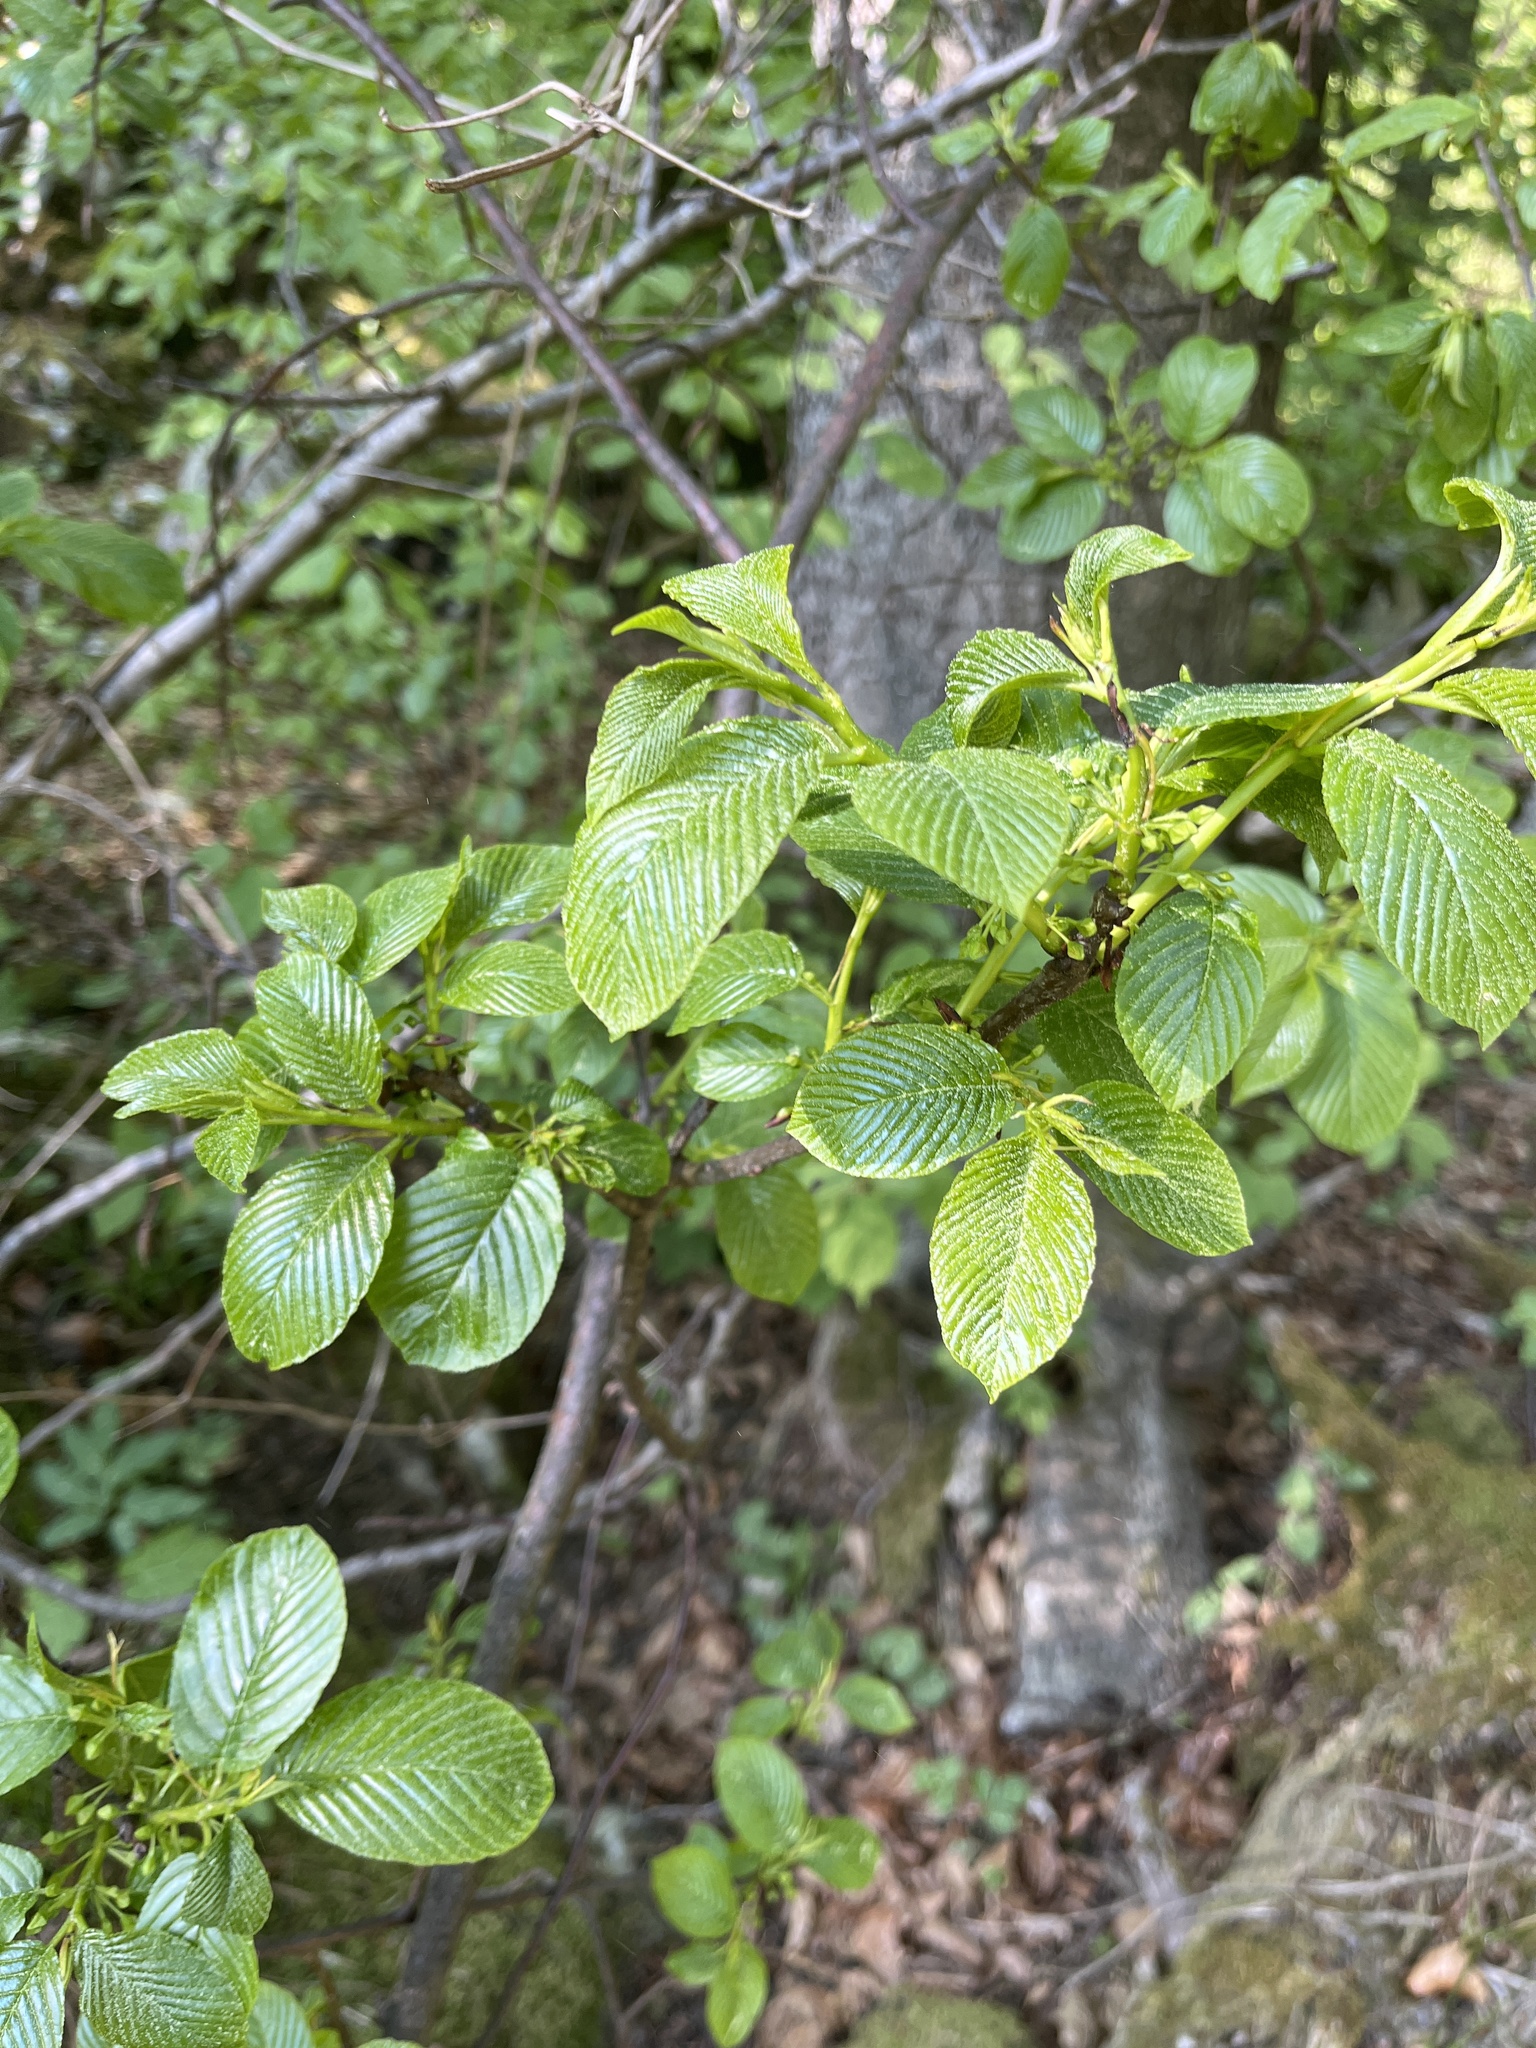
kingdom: Plantae
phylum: Tracheophyta
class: Magnoliopsida
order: Rosales
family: Rhamnaceae
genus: Atadinus
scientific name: Atadinus fallax
